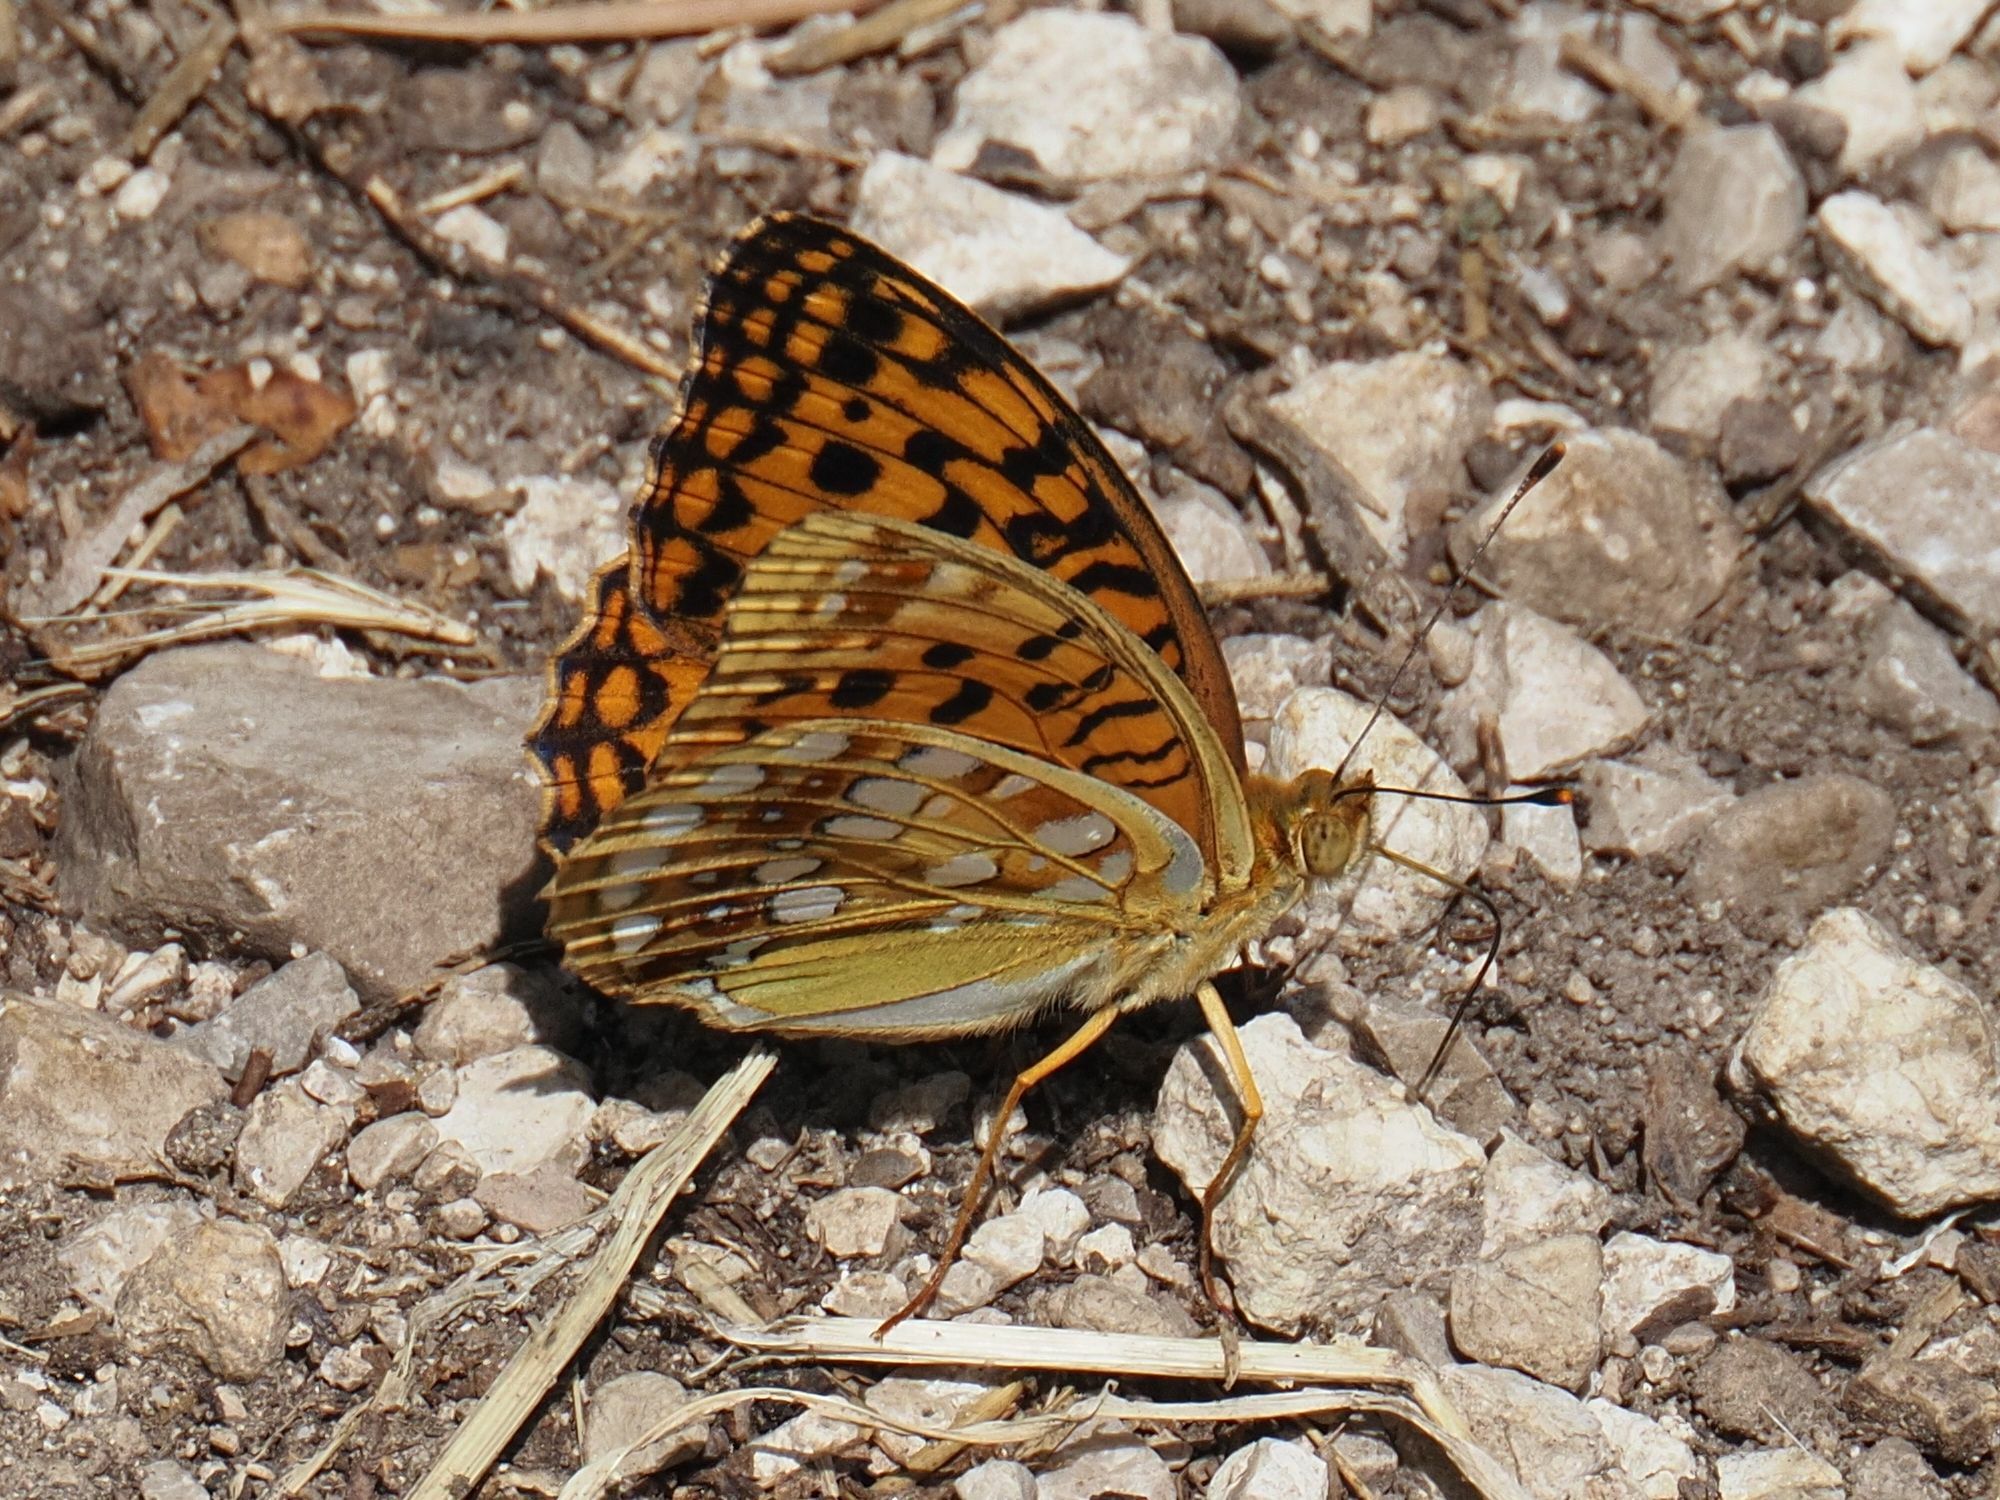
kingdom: Animalia
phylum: Arthropoda
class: Insecta
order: Lepidoptera
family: Nymphalidae
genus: Fabriciana
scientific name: Fabriciana adippe
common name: High brown fritillary
